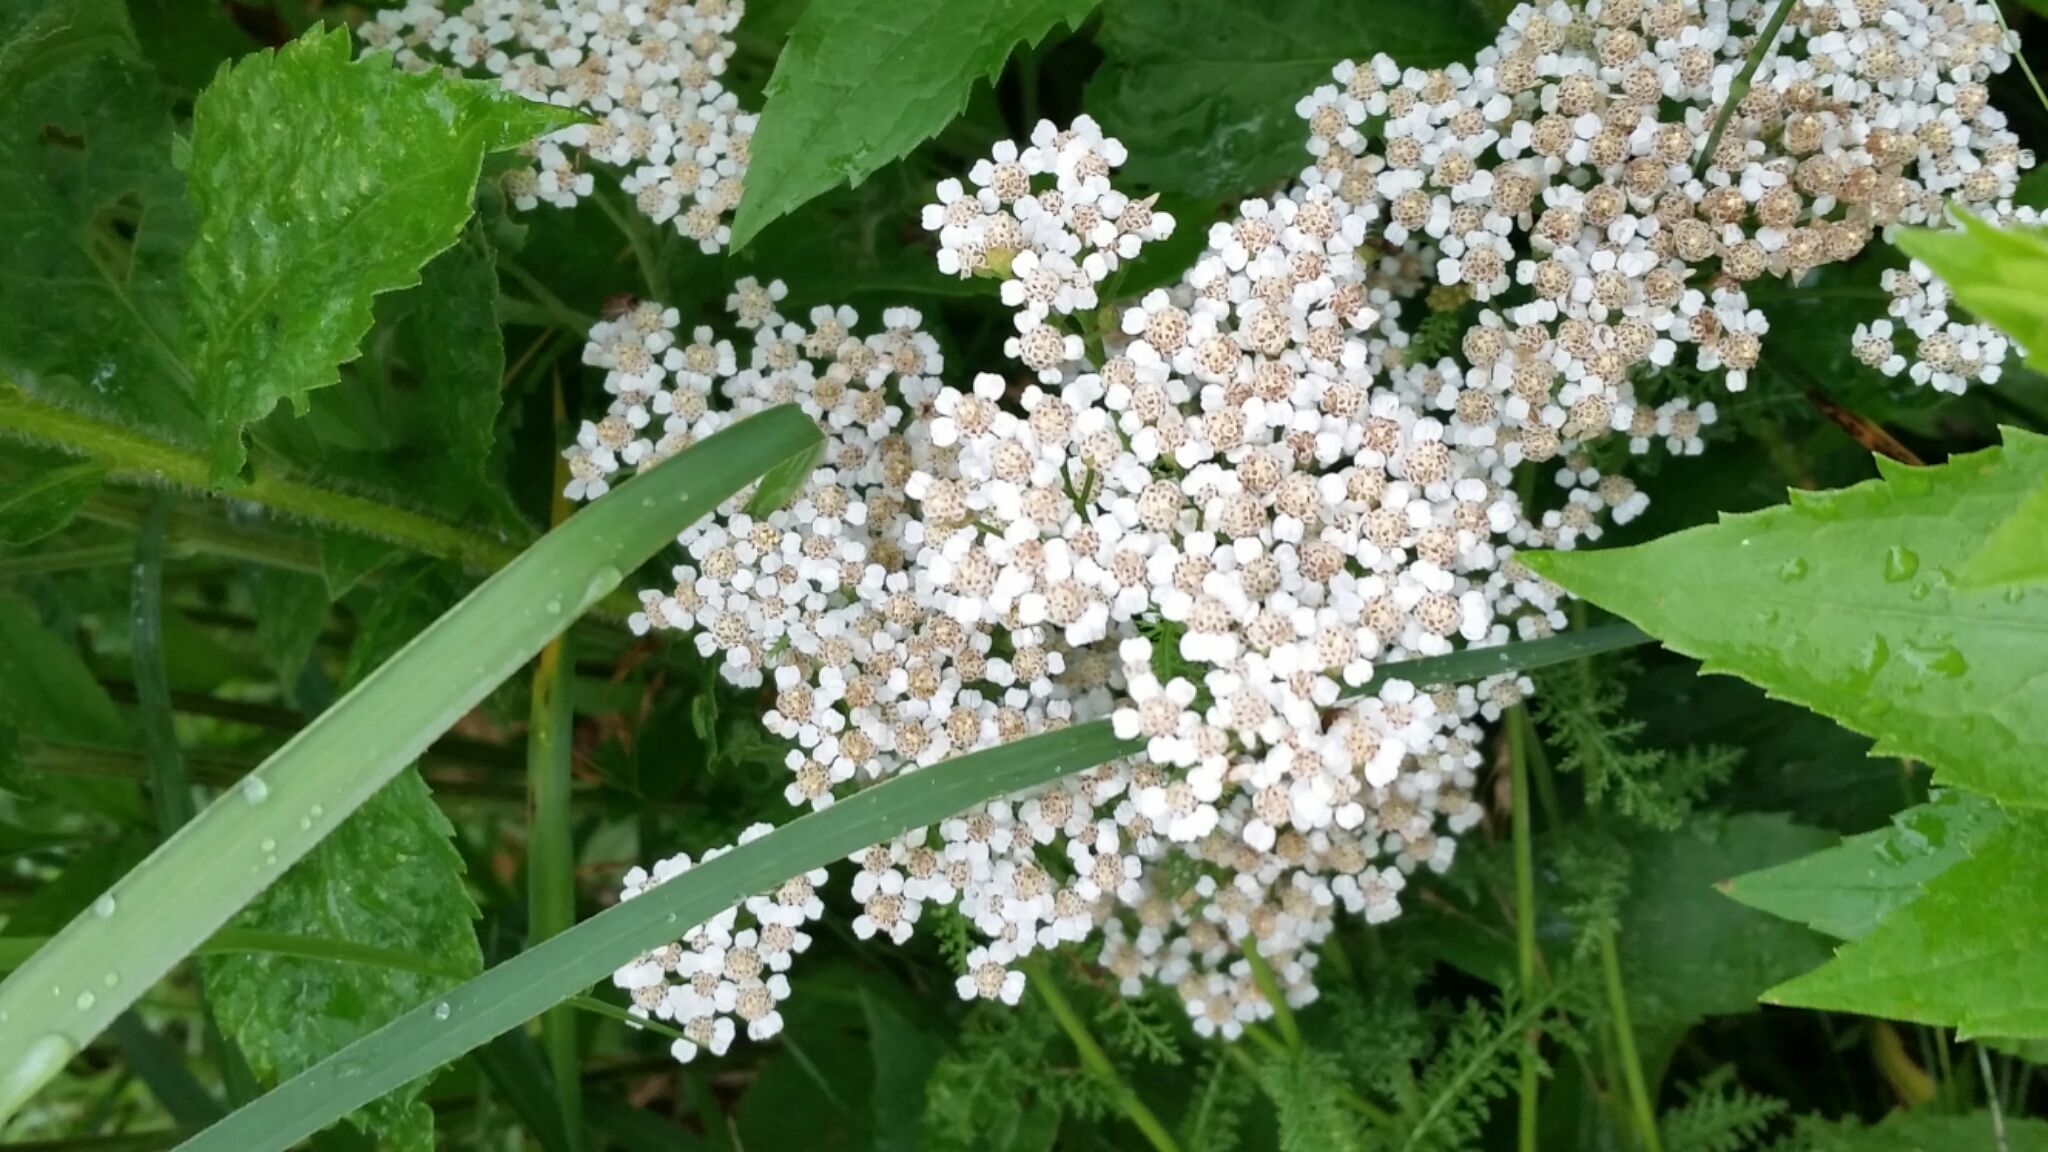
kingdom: Plantae
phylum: Tracheophyta
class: Magnoliopsida
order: Asterales
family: Asteraceae
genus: Achillea
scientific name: Achillea millefolium
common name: Yarrow
